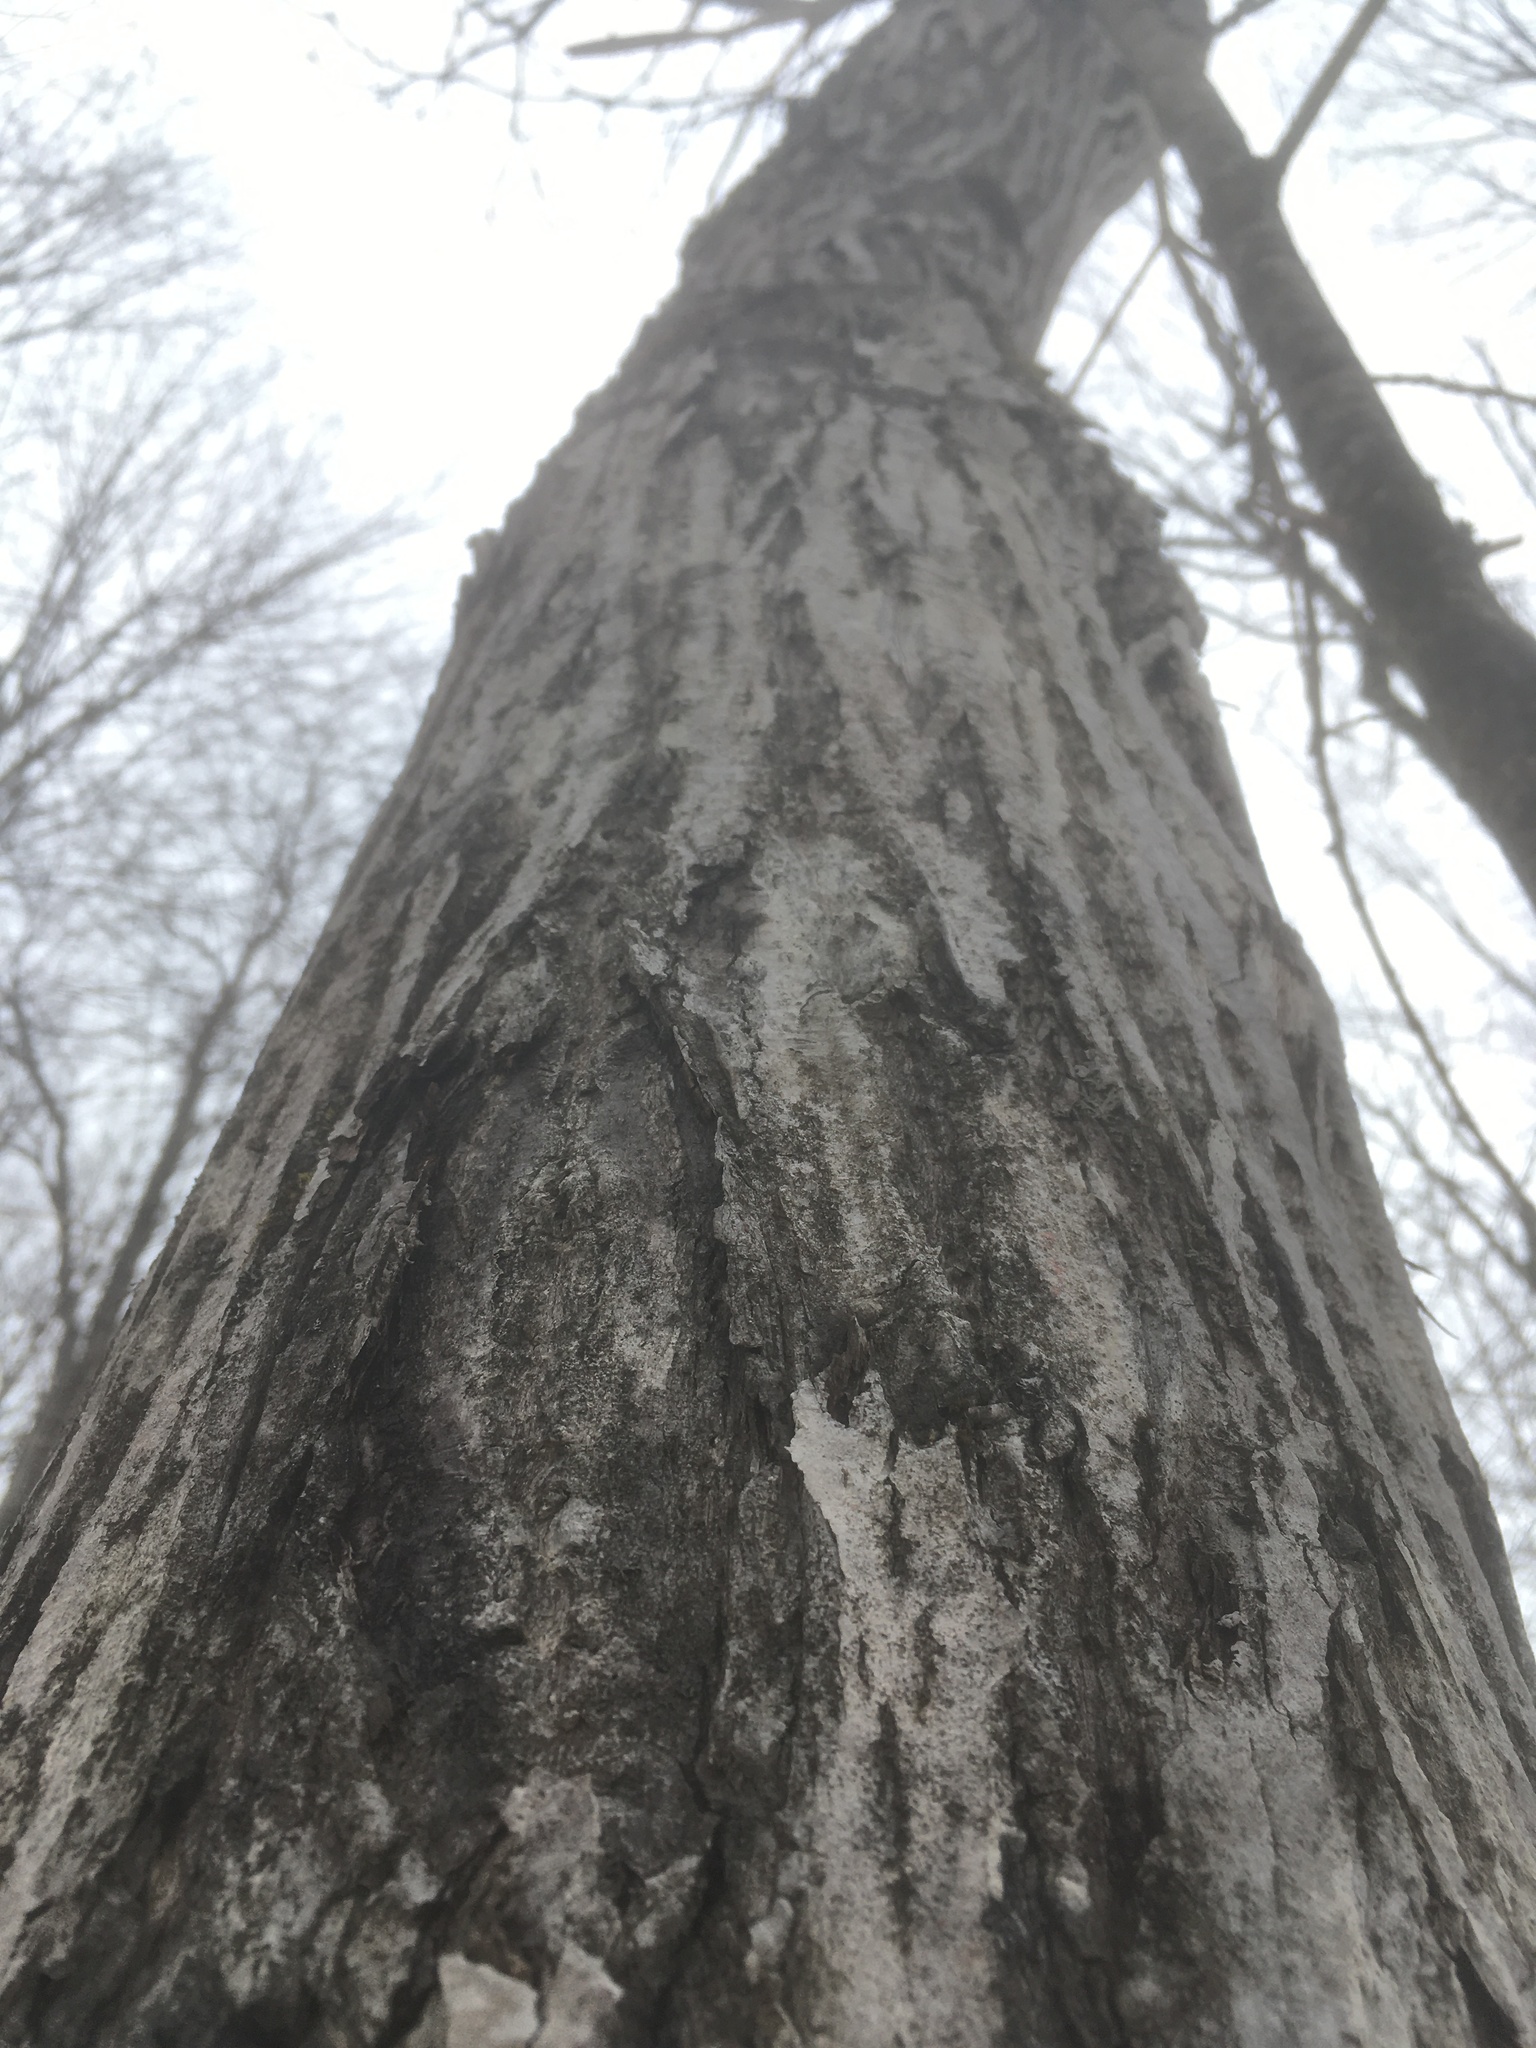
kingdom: Plantae
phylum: Tracheophyta
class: Magnoliopsida
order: Fagales
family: Juglandaceae
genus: Juglans
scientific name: Juglans cinerea
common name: Butternut
